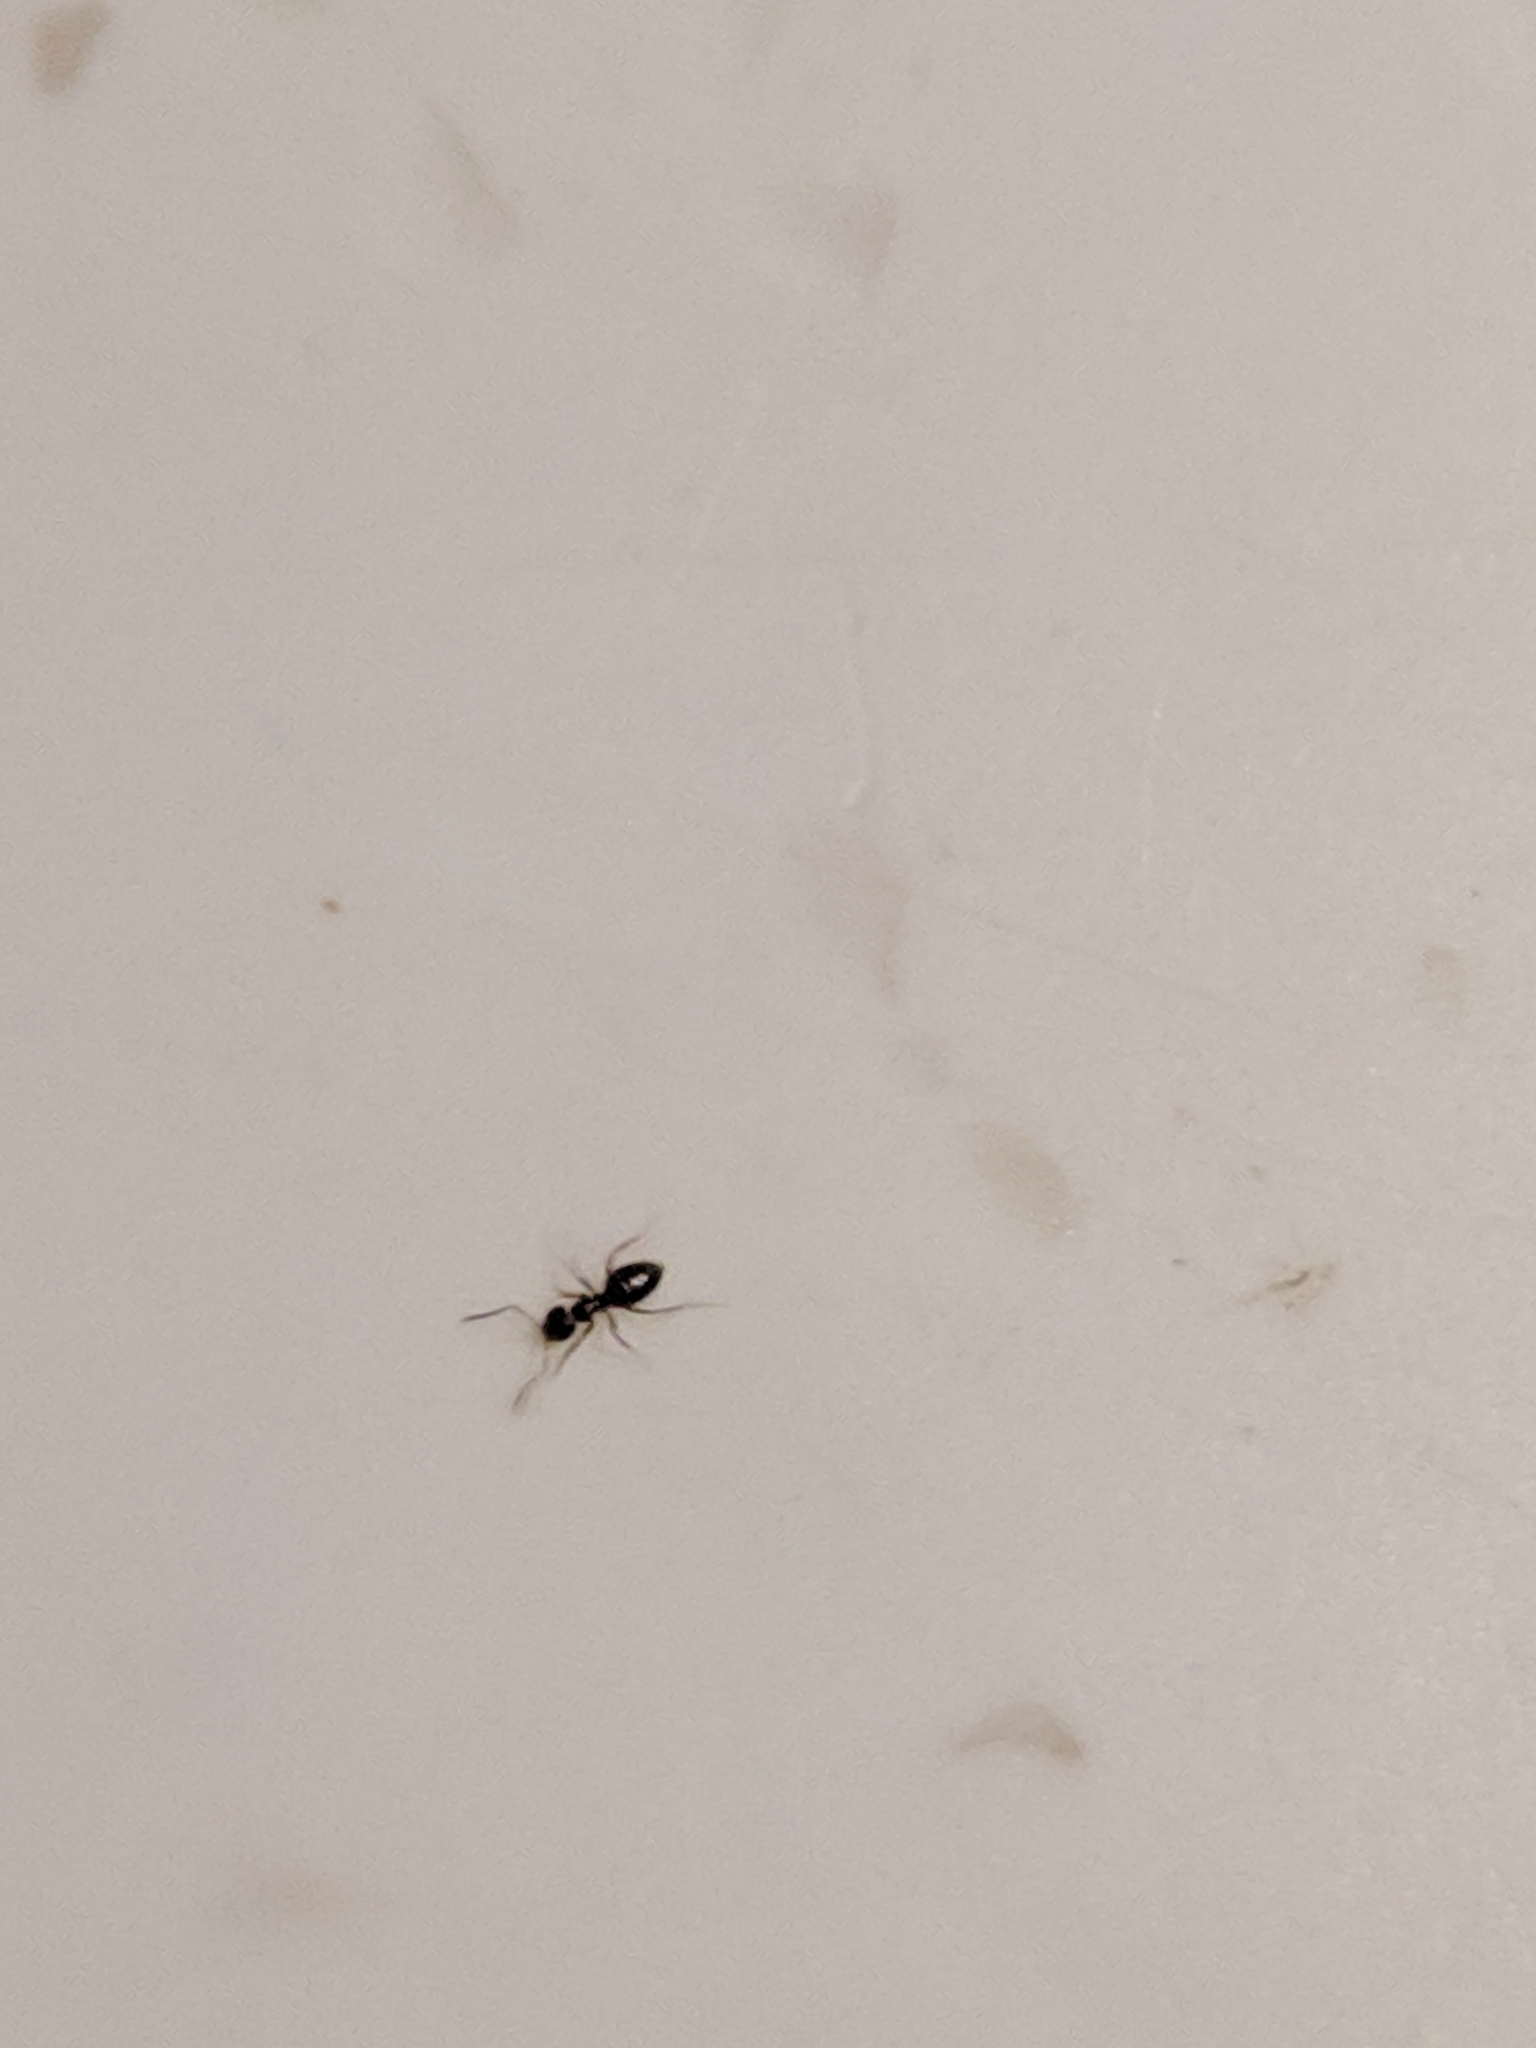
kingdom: Animalia
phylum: Arthropoda
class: Insecta
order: Hymenoptera
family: Formicidae
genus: Brachymyrmex
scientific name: Brachymyrmex patagonicus
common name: Dark rover ant
